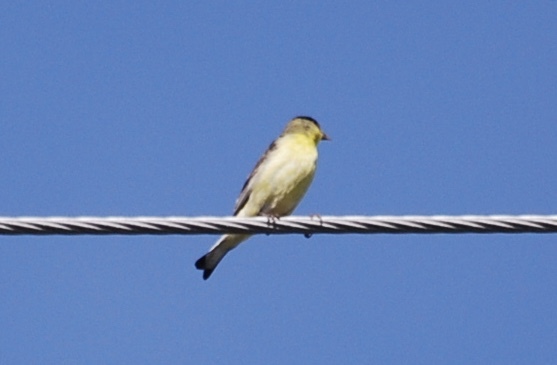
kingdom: Animalia
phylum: Chordata
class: Aves
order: Passeriformes
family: Fringillidae
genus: Spinus
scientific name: Spinus psaltria
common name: Lesser goldfinch
